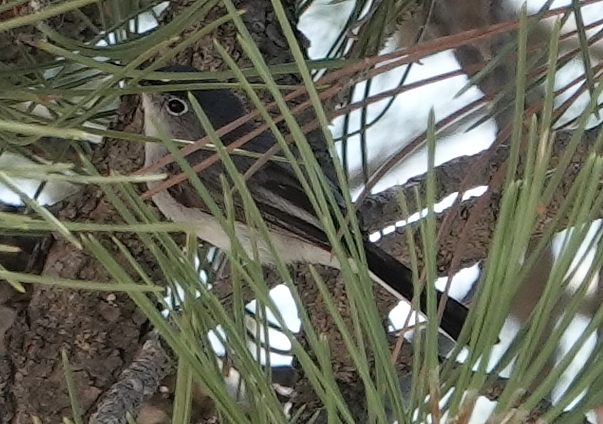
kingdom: Animalia
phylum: Chordata
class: Aves
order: Passeriformes
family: Polioptilidae
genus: Polioptila
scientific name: Polioptila caerulea
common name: Blue-gray gnatcatcher
